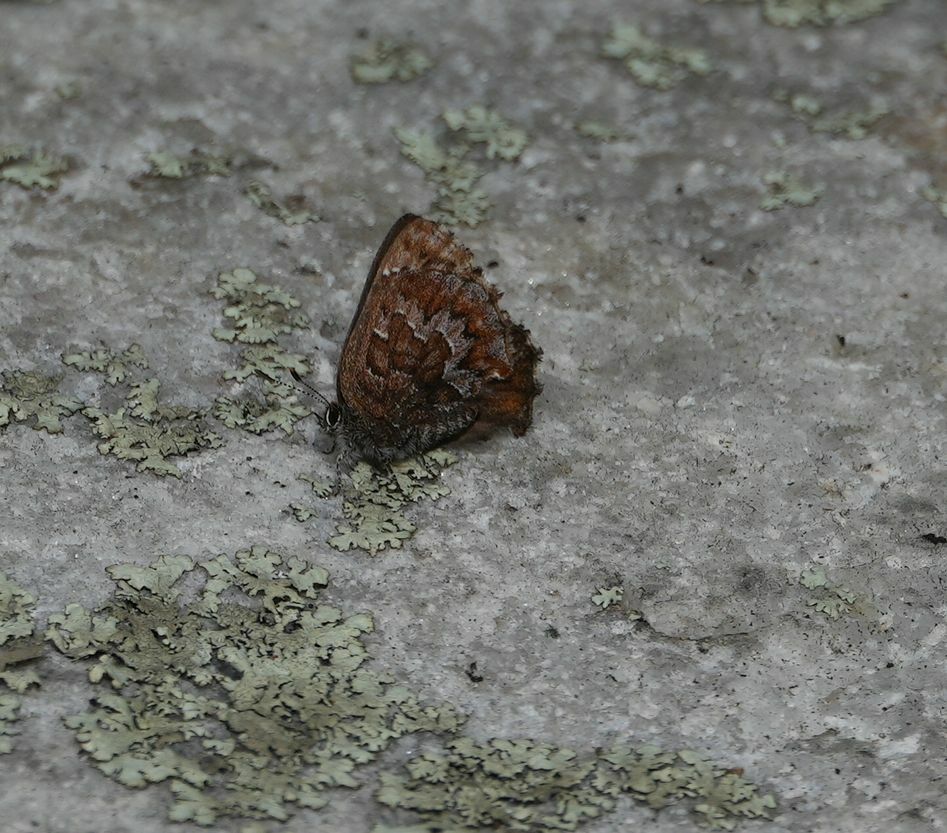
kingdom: Animalia
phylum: Arthropoda
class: Insecta
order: Lepidoptera
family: Lycaenidae
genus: Incisalia
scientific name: Incisalia niphon
